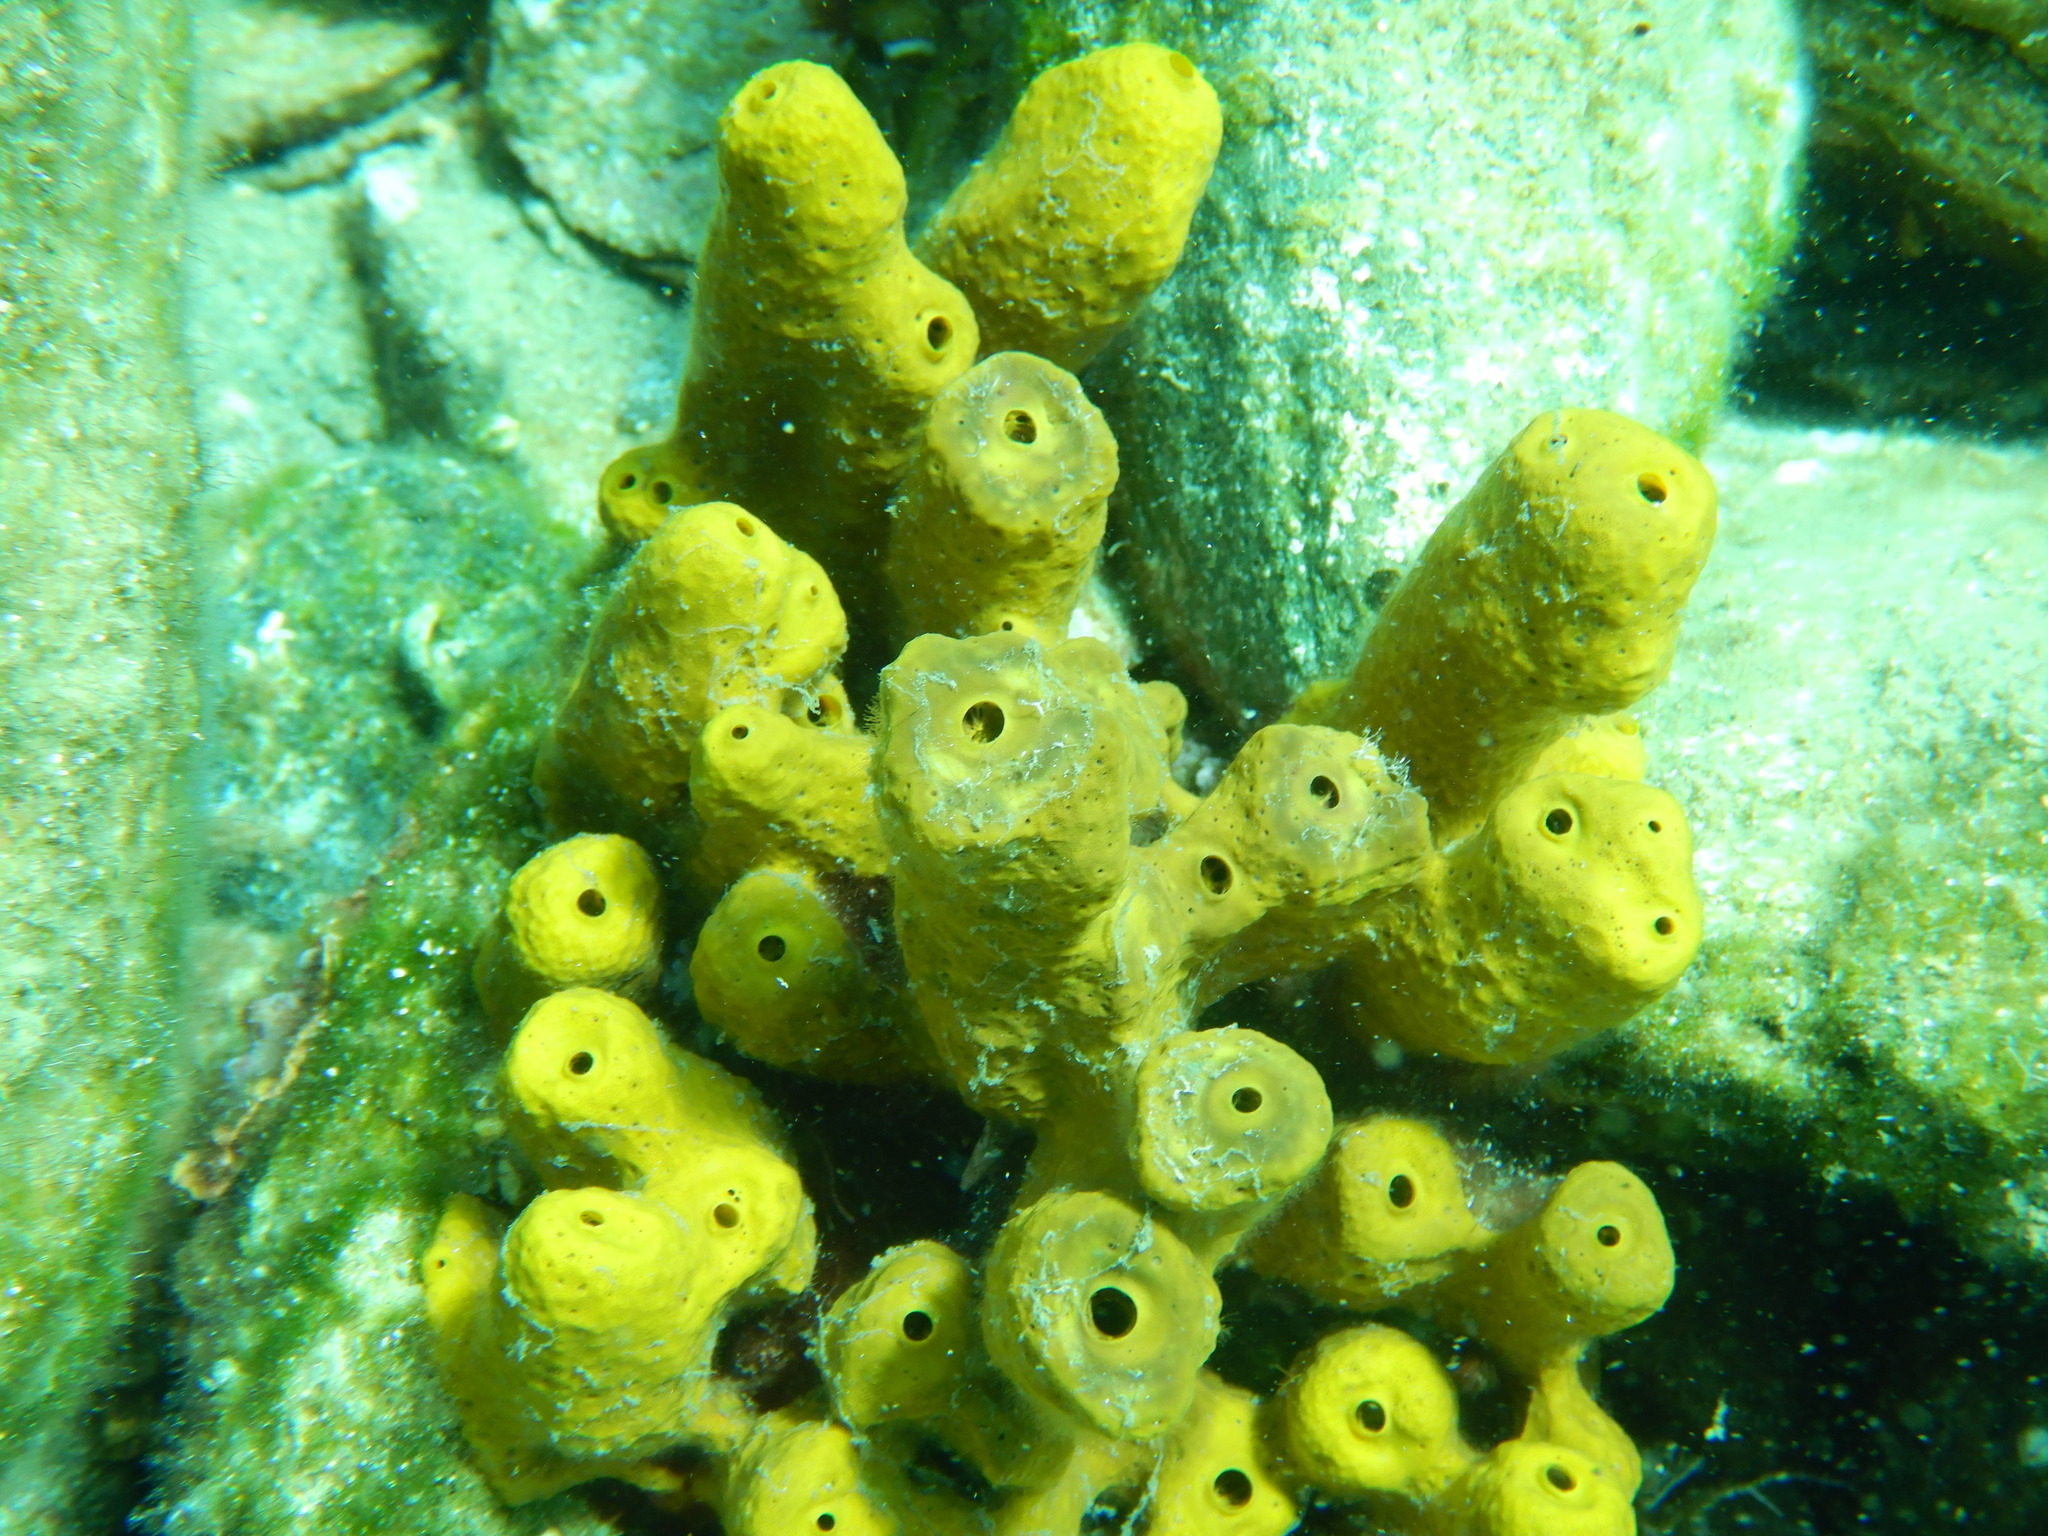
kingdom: Animalia
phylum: Porifera
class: Demospongiae
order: Verongiida
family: Aplysinidae
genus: Aplysina
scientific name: Aplysina aerophoba
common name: Aureate sponge
